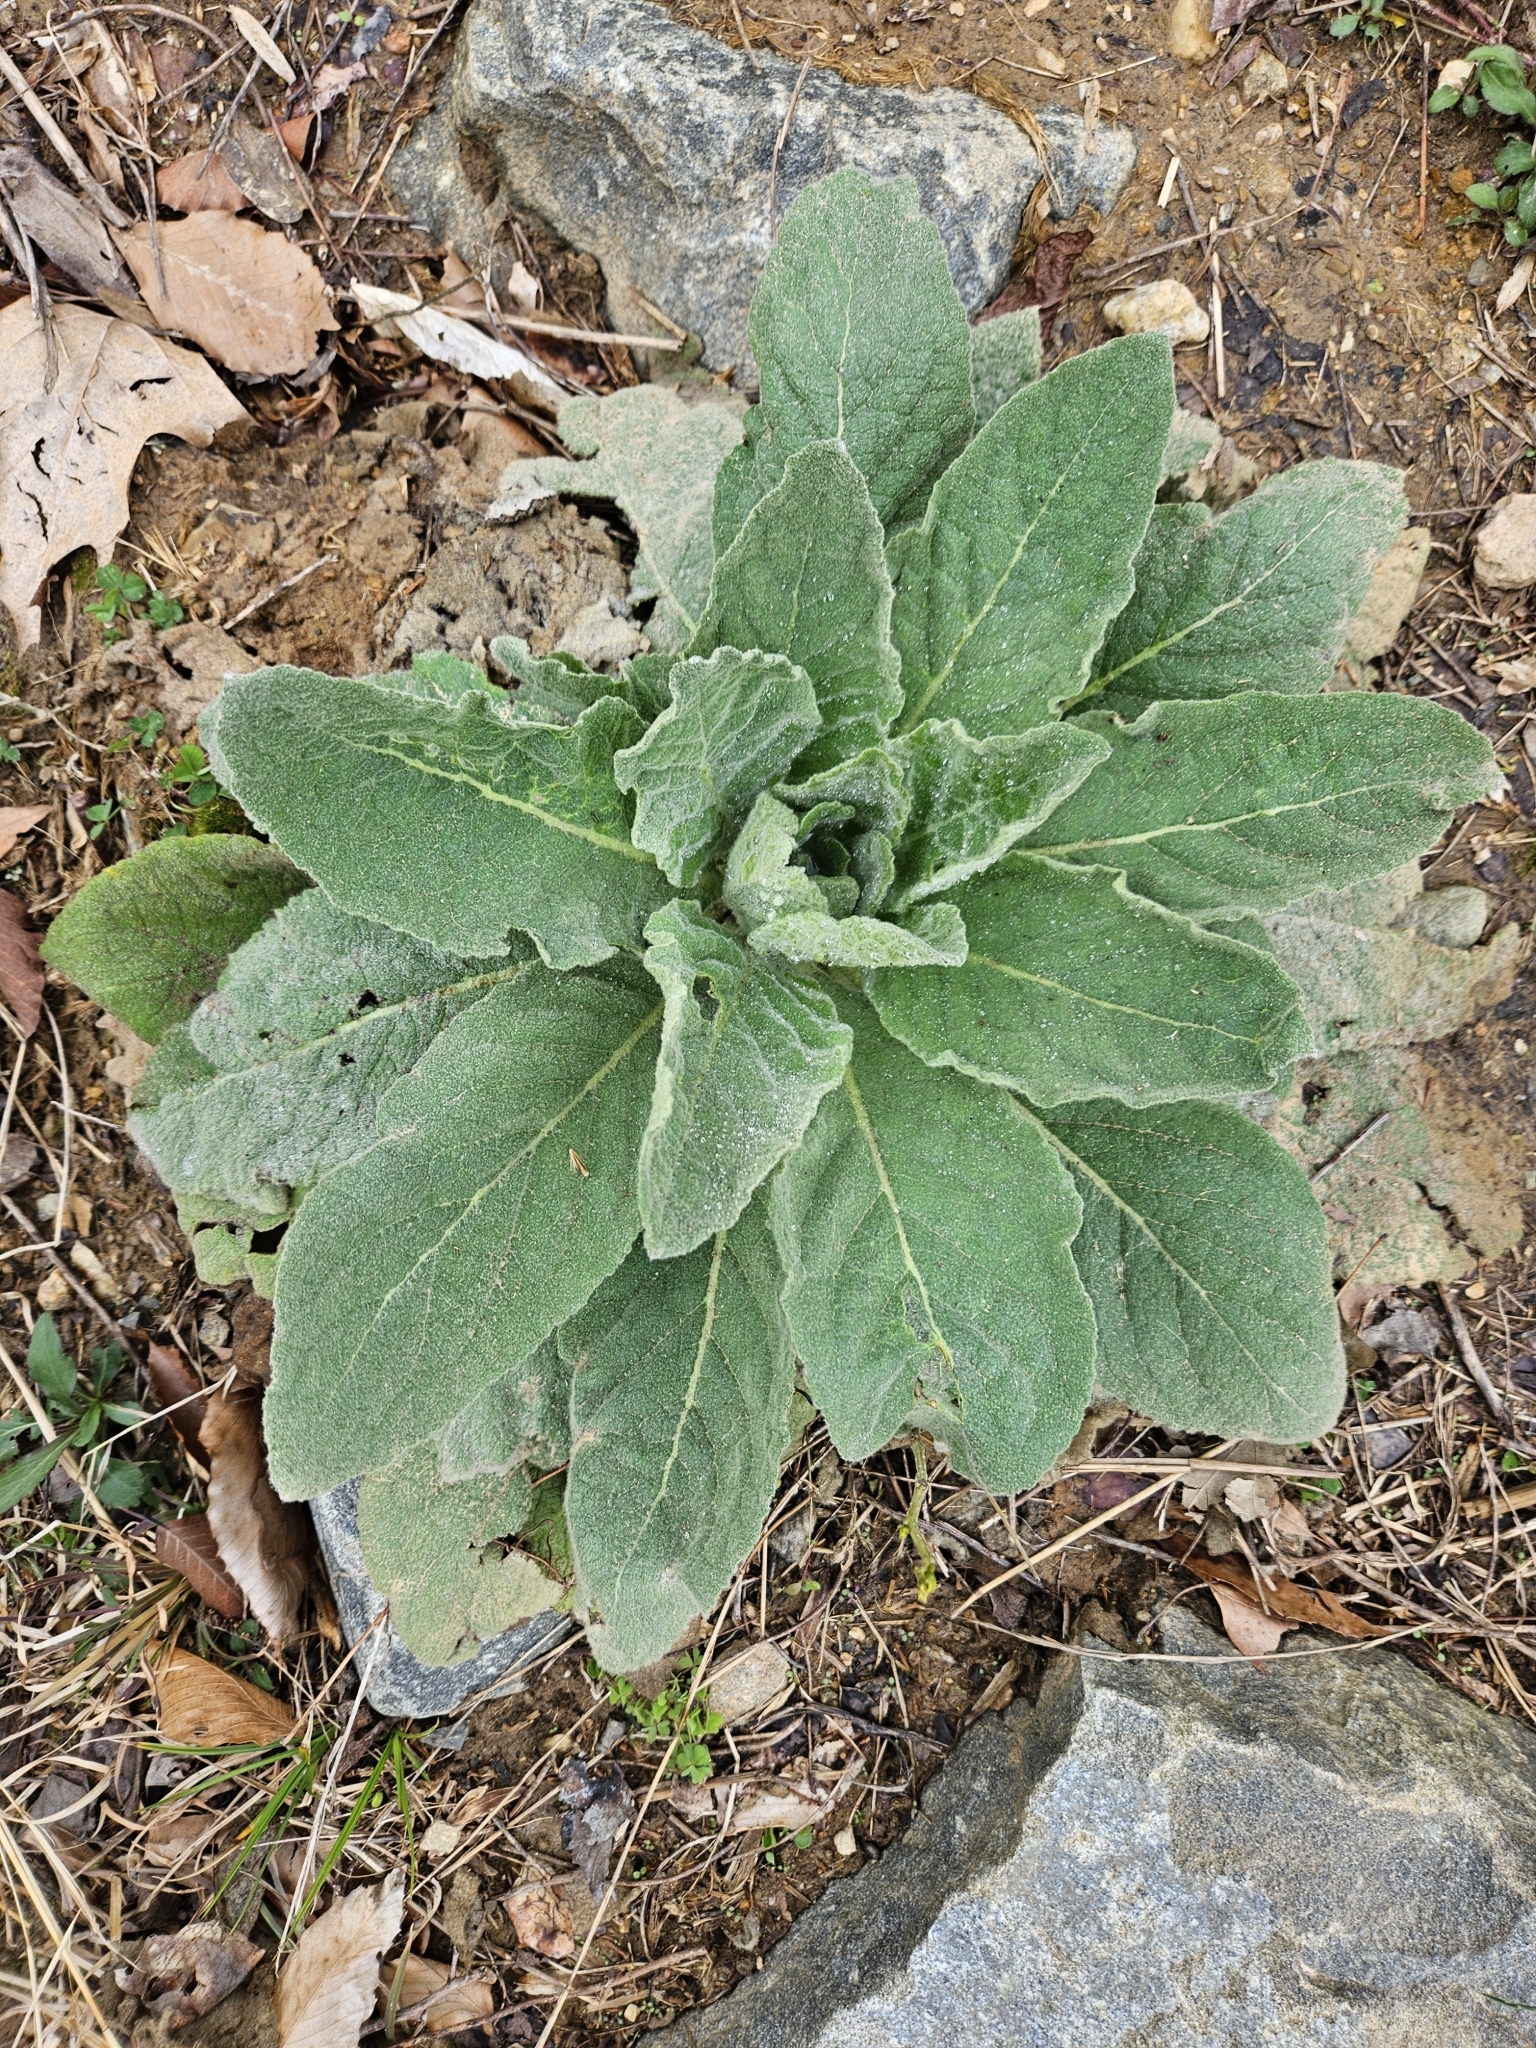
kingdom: Plantae
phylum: Tracheophyta
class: Magnoliopsida
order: Lamiales
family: Scrophulariaceae
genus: Verbascum
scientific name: Verbascum thapsus
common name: Common mullein
